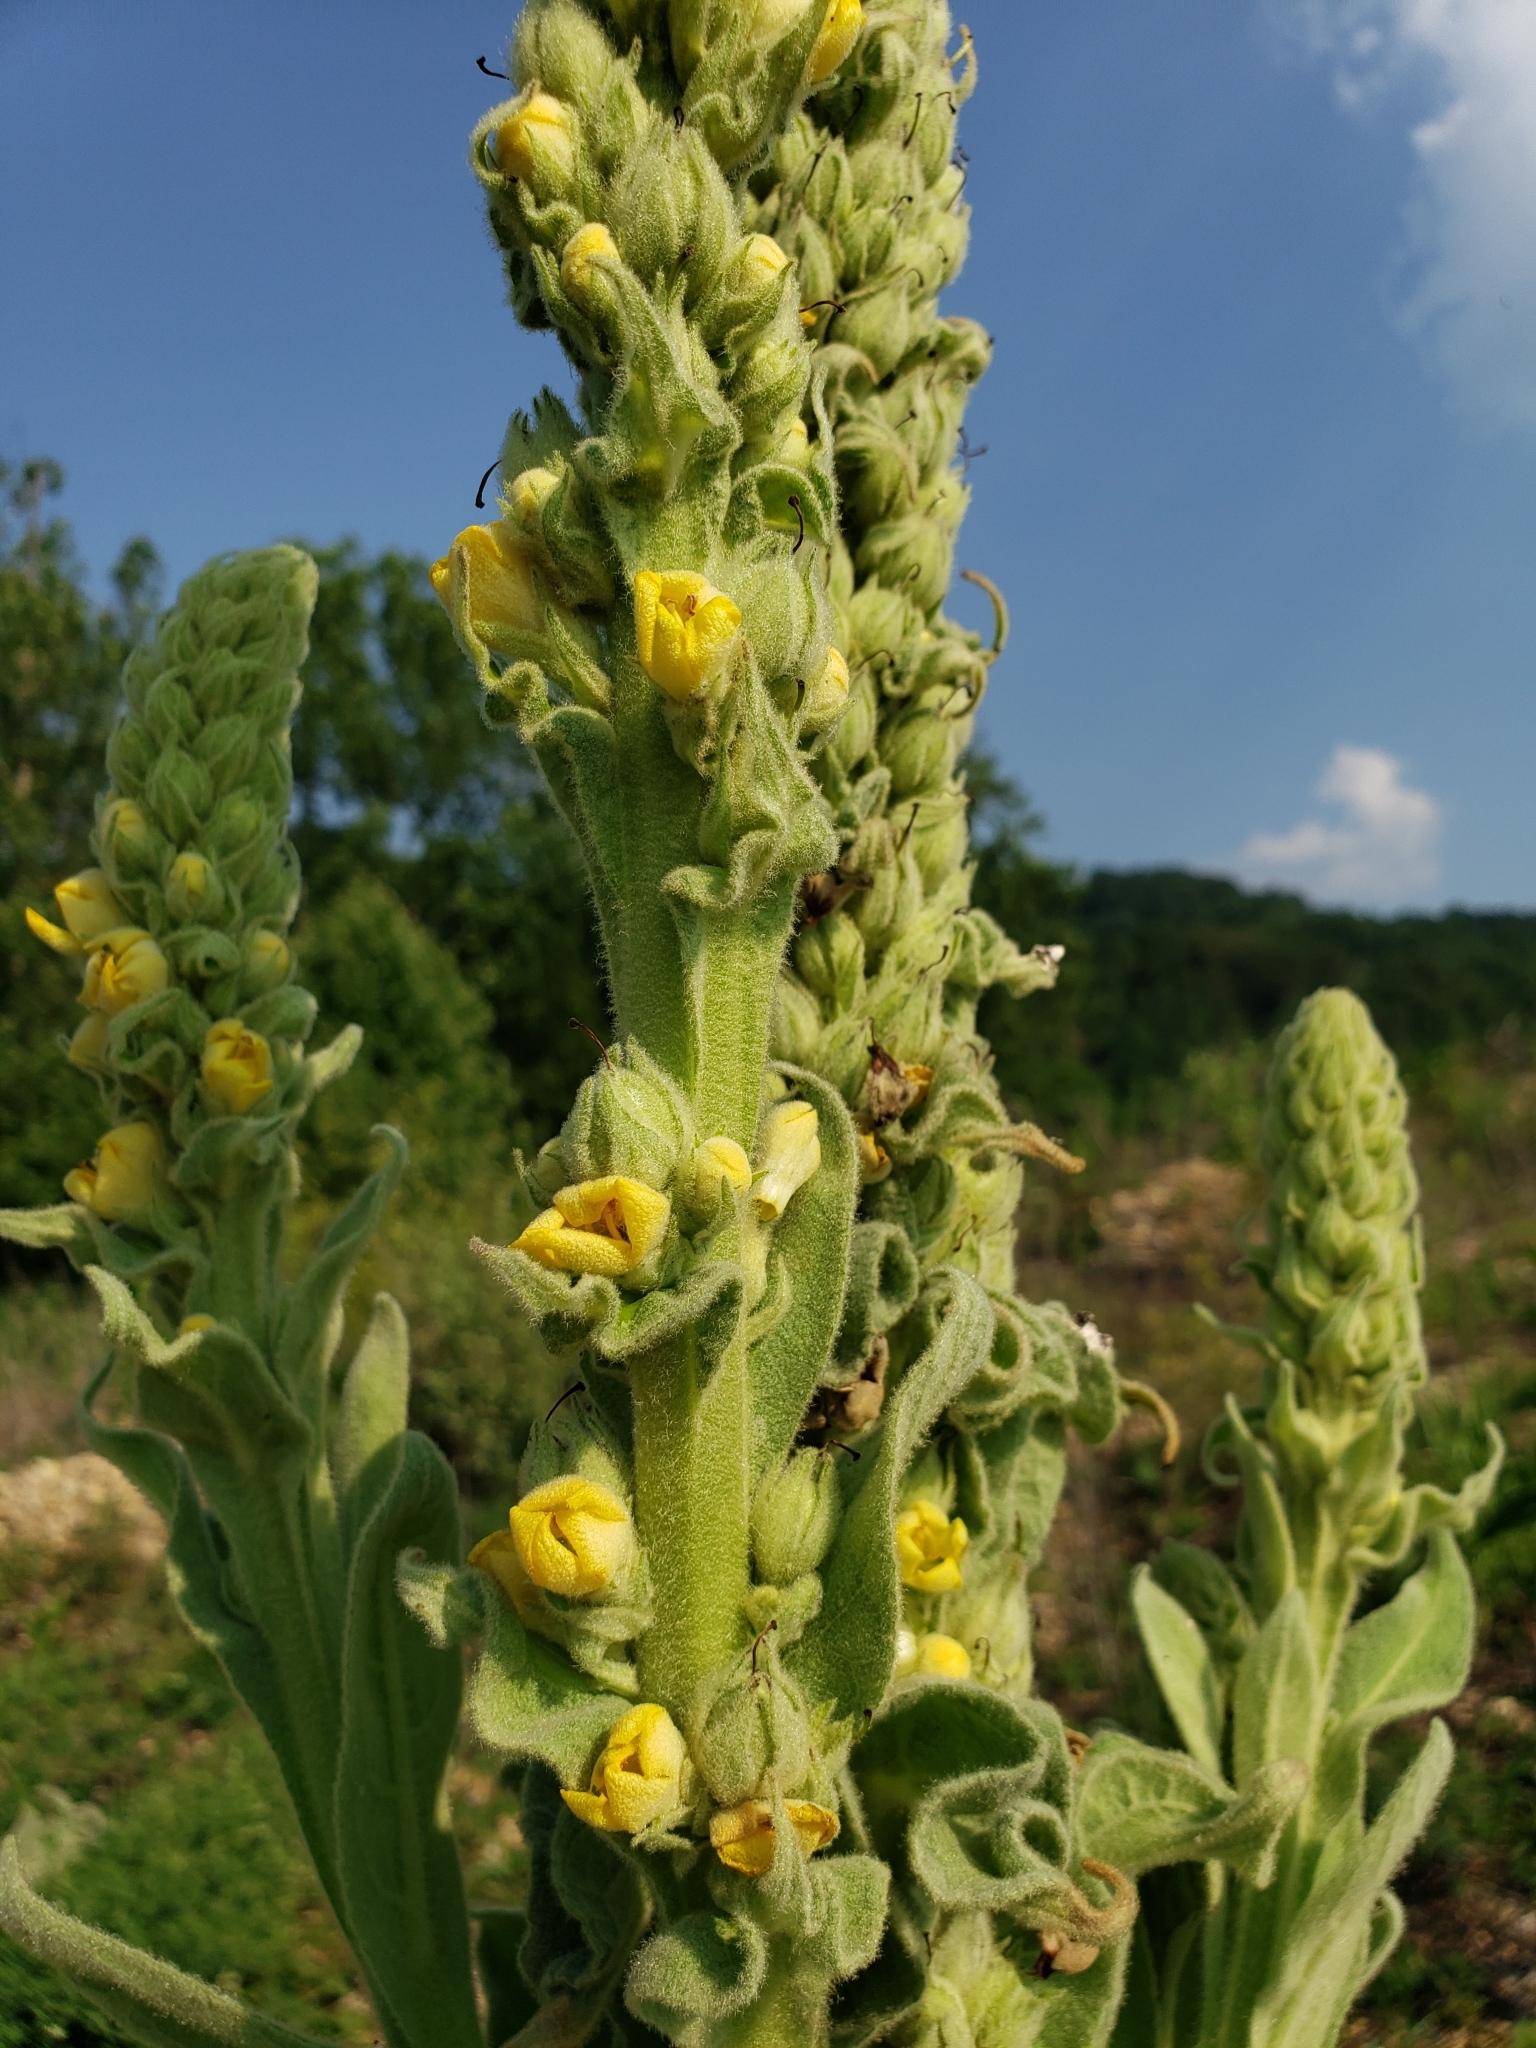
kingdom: Plantae
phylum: Tracheophyta
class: Magnoliopsida
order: Lamiales
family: Scrophulariaceae
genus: Verbascum
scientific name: Verbascum thapsus
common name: Common mullein
